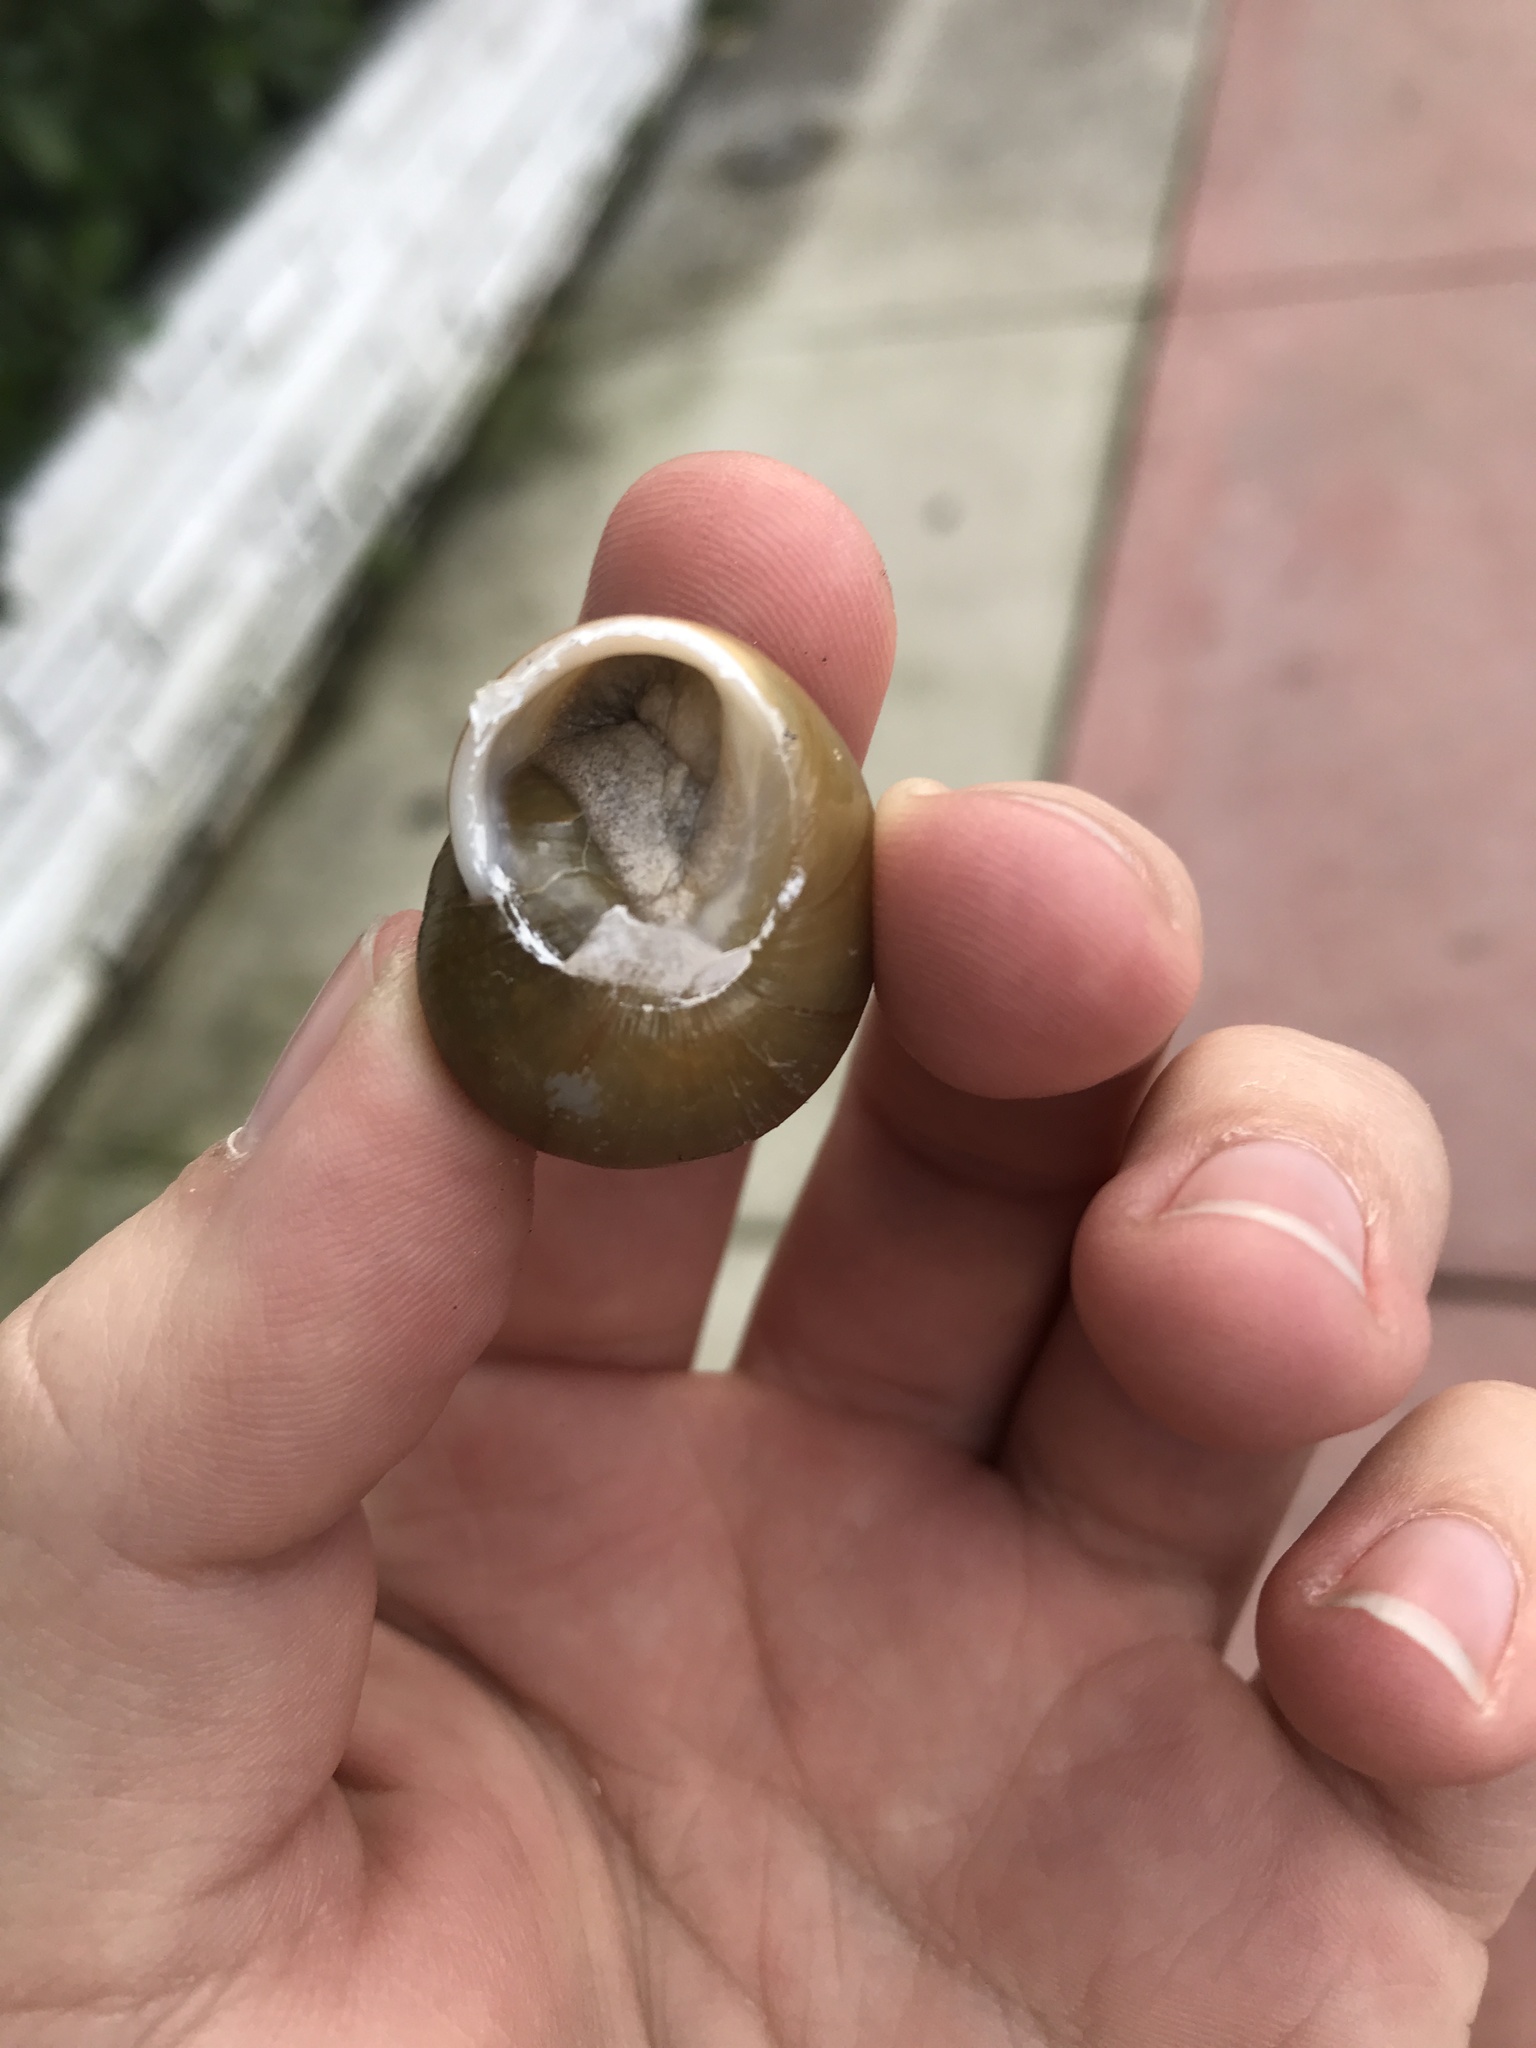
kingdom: Animalia
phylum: Mollusca
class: Gastropoda
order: Stylommatophora
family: Zachrysiidae
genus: Zachrysia
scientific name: Zachrysia provisoria
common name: Garden zachrysia
